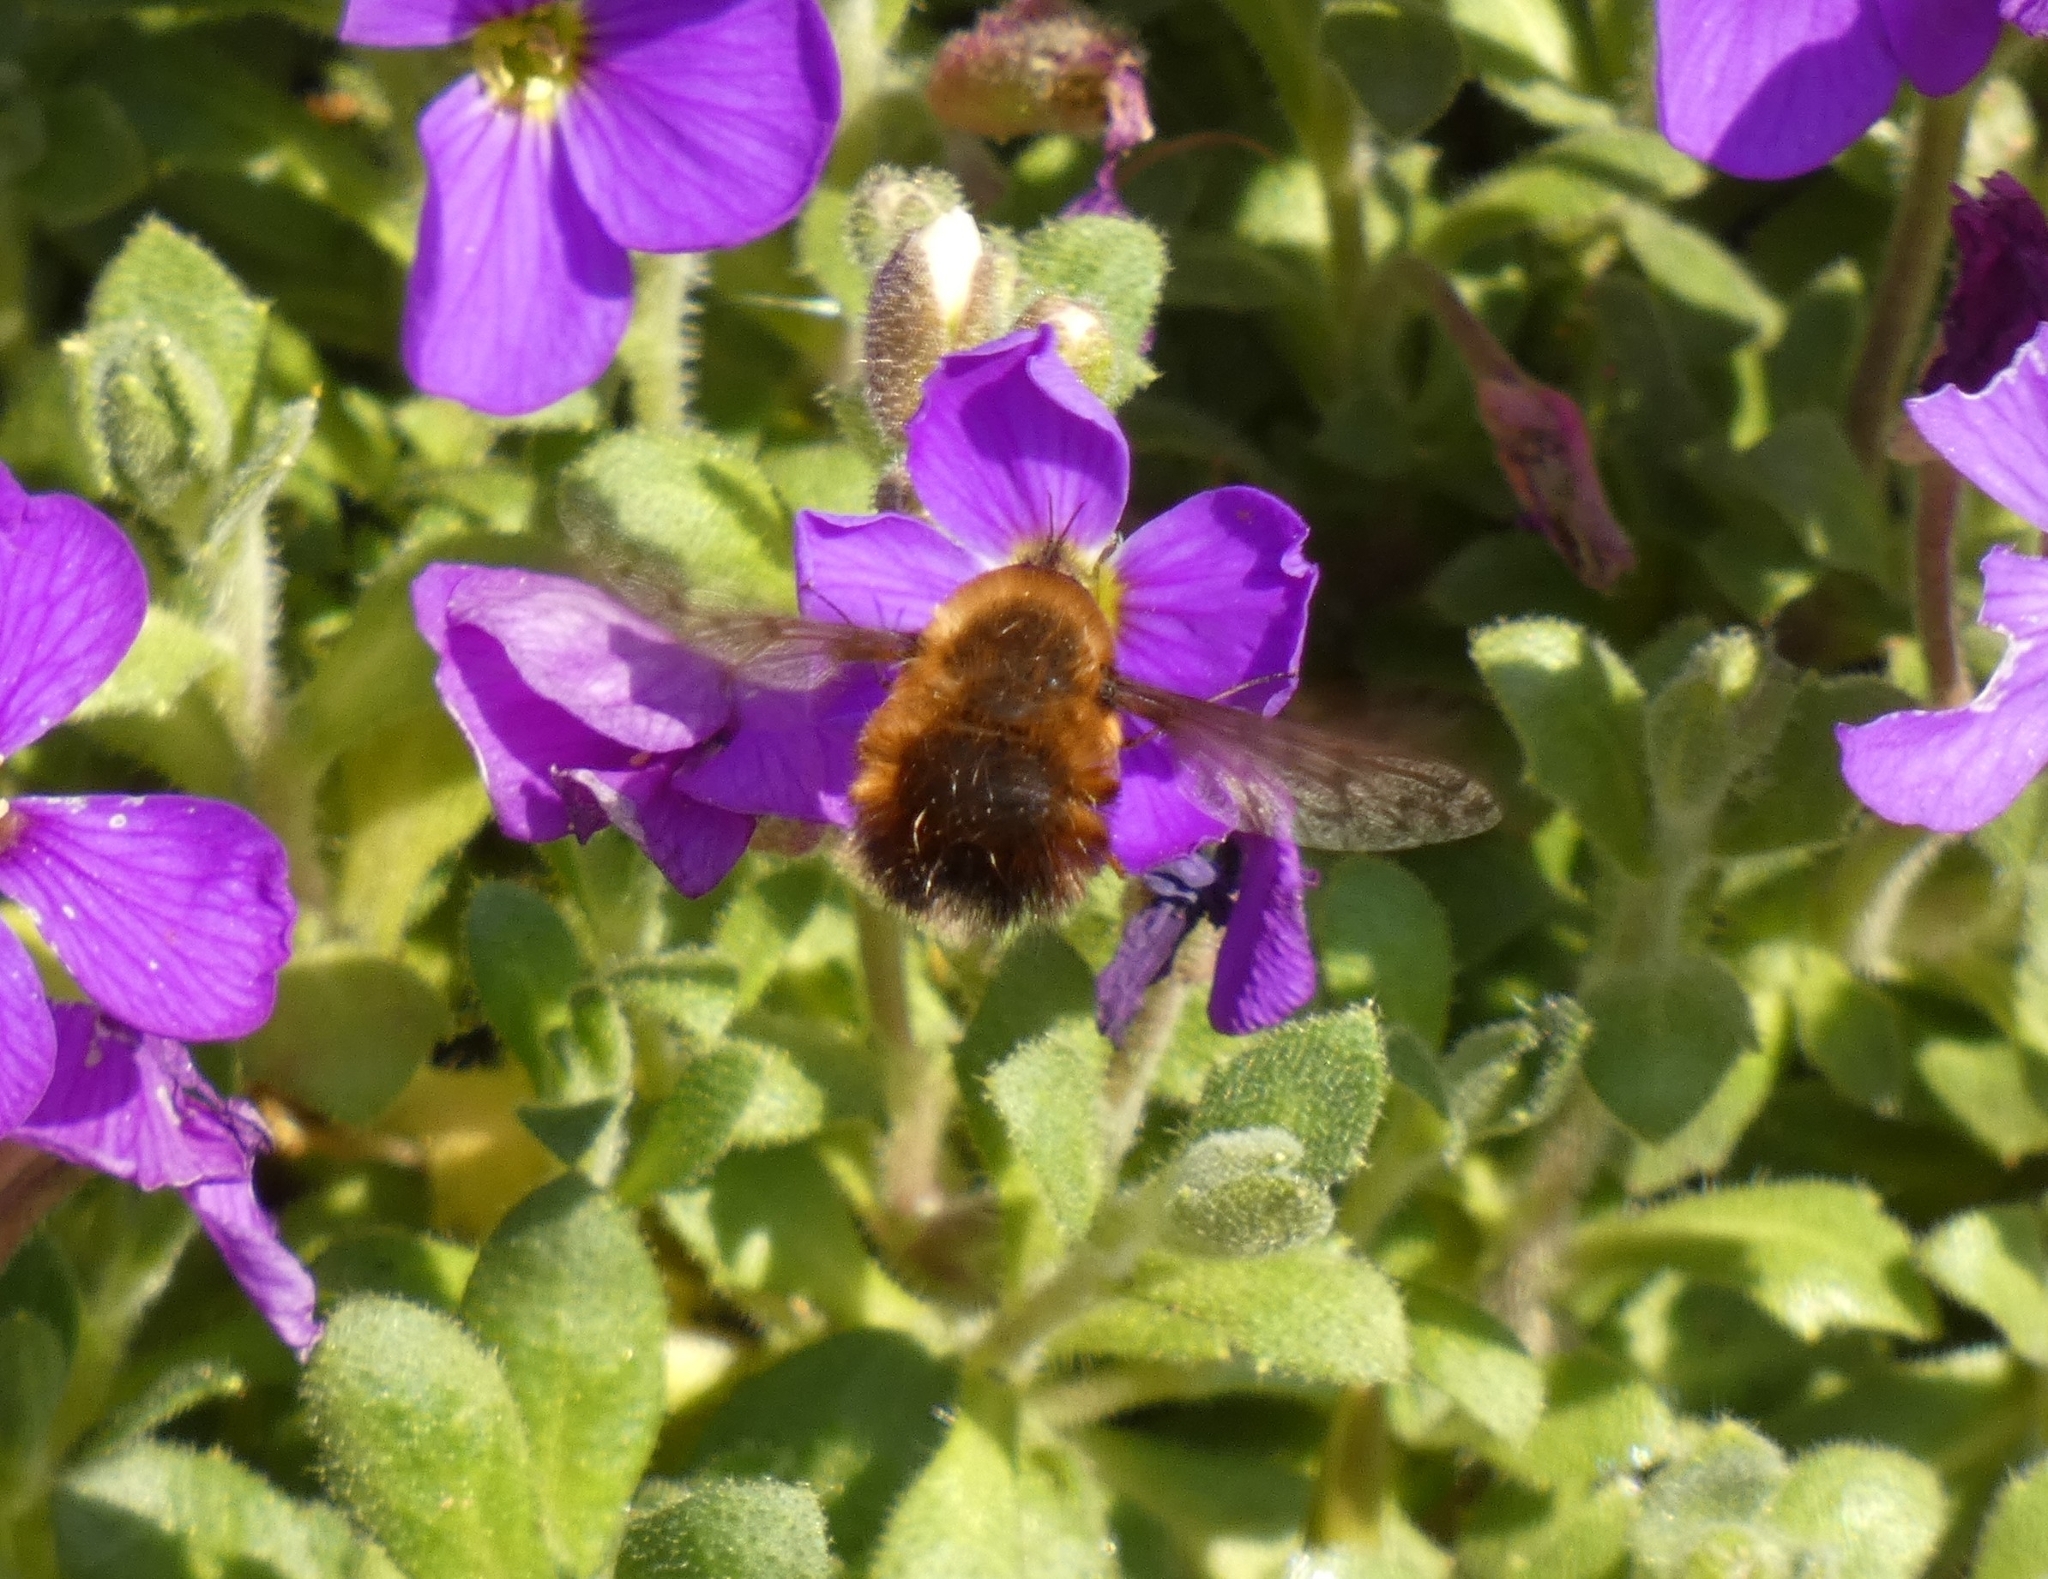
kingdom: Animalia
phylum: Arthropoda
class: Insecta
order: Diptera
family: Bombyliidae
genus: Bombylius
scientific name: Bombylius discolor
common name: Dotted bee-fly
